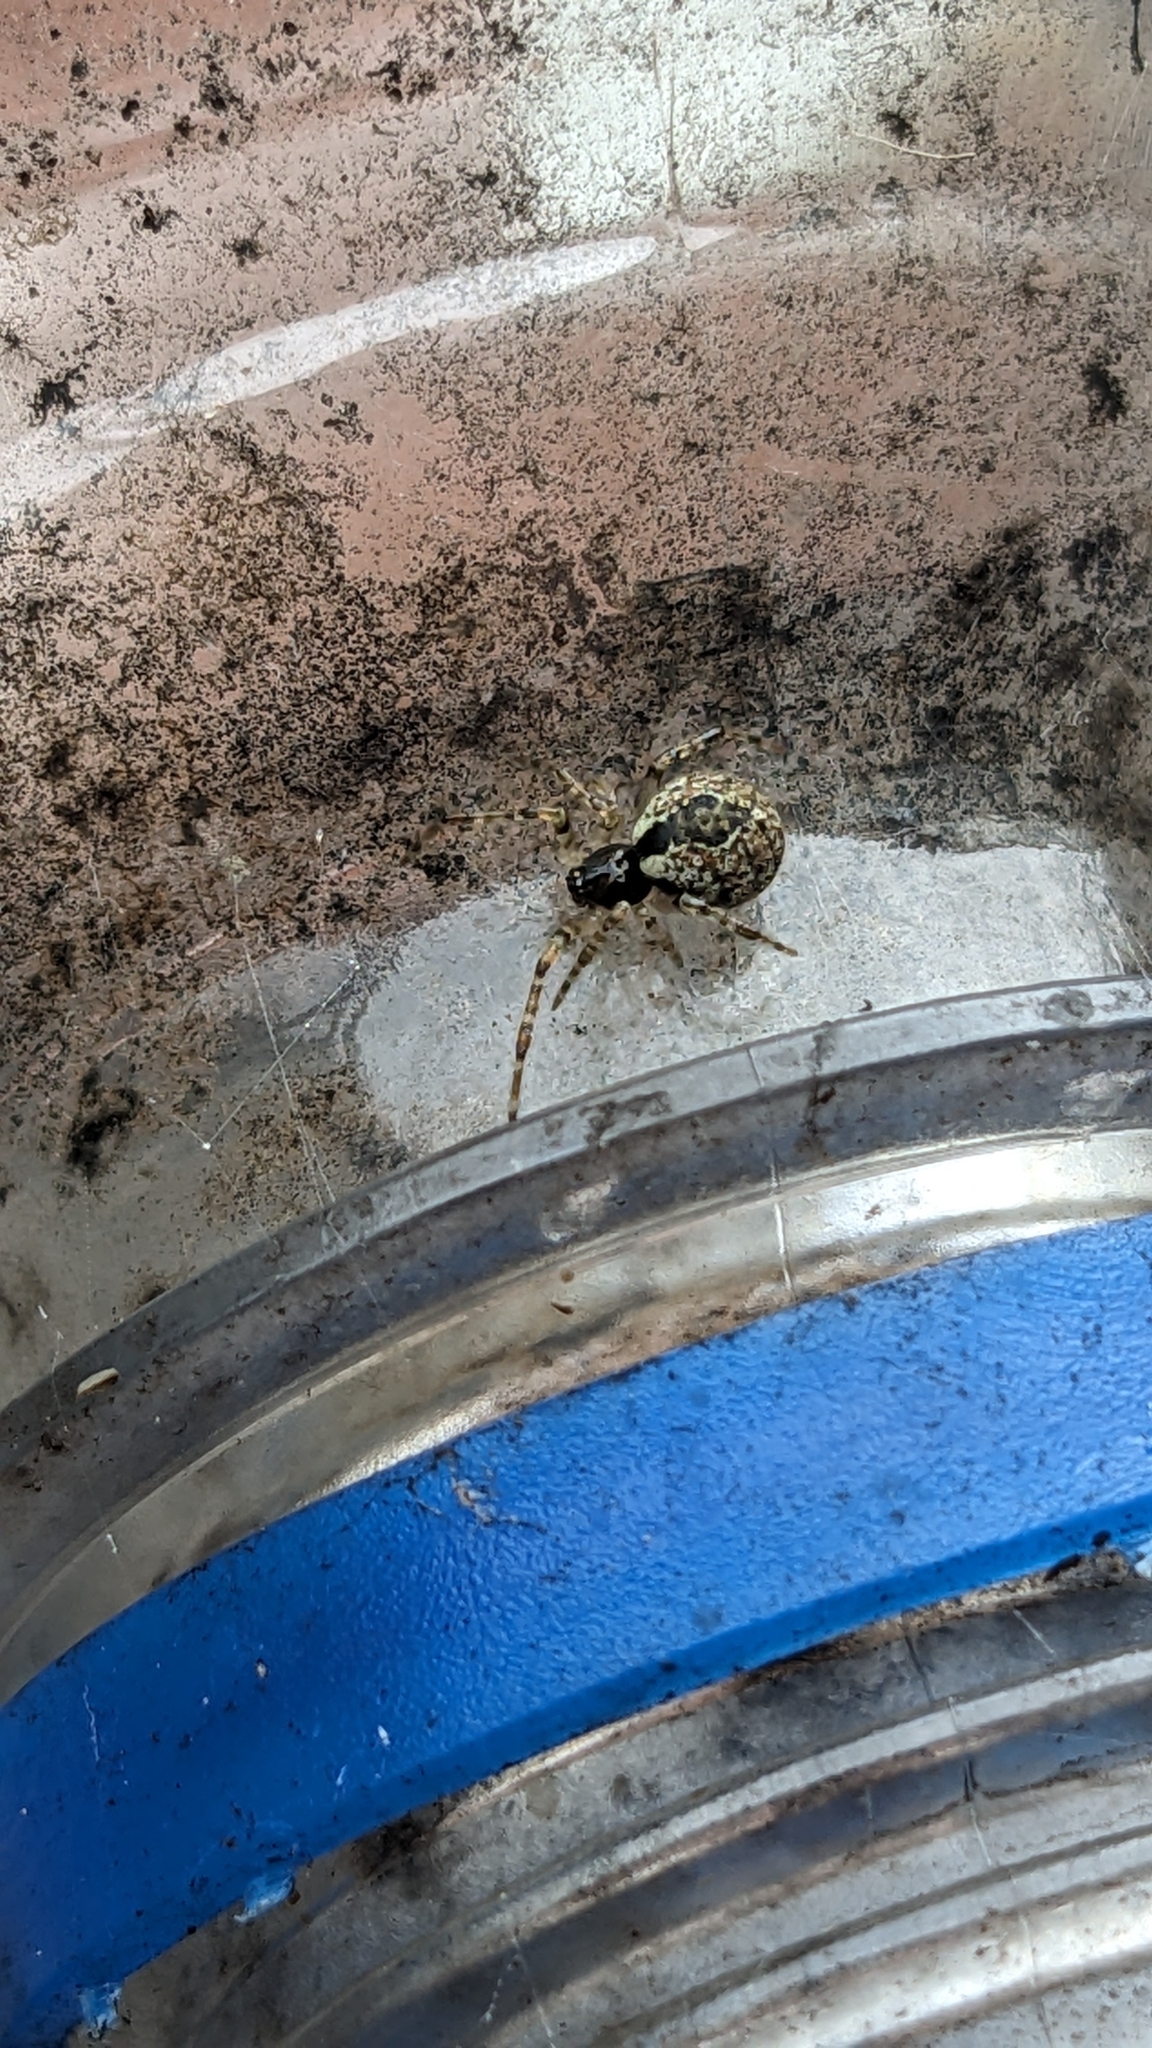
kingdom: Animalia
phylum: Arthropoda
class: Arachnida
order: Araneae
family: Theridiidae
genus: Cryptachaea
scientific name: Cryptachaea veruculata
